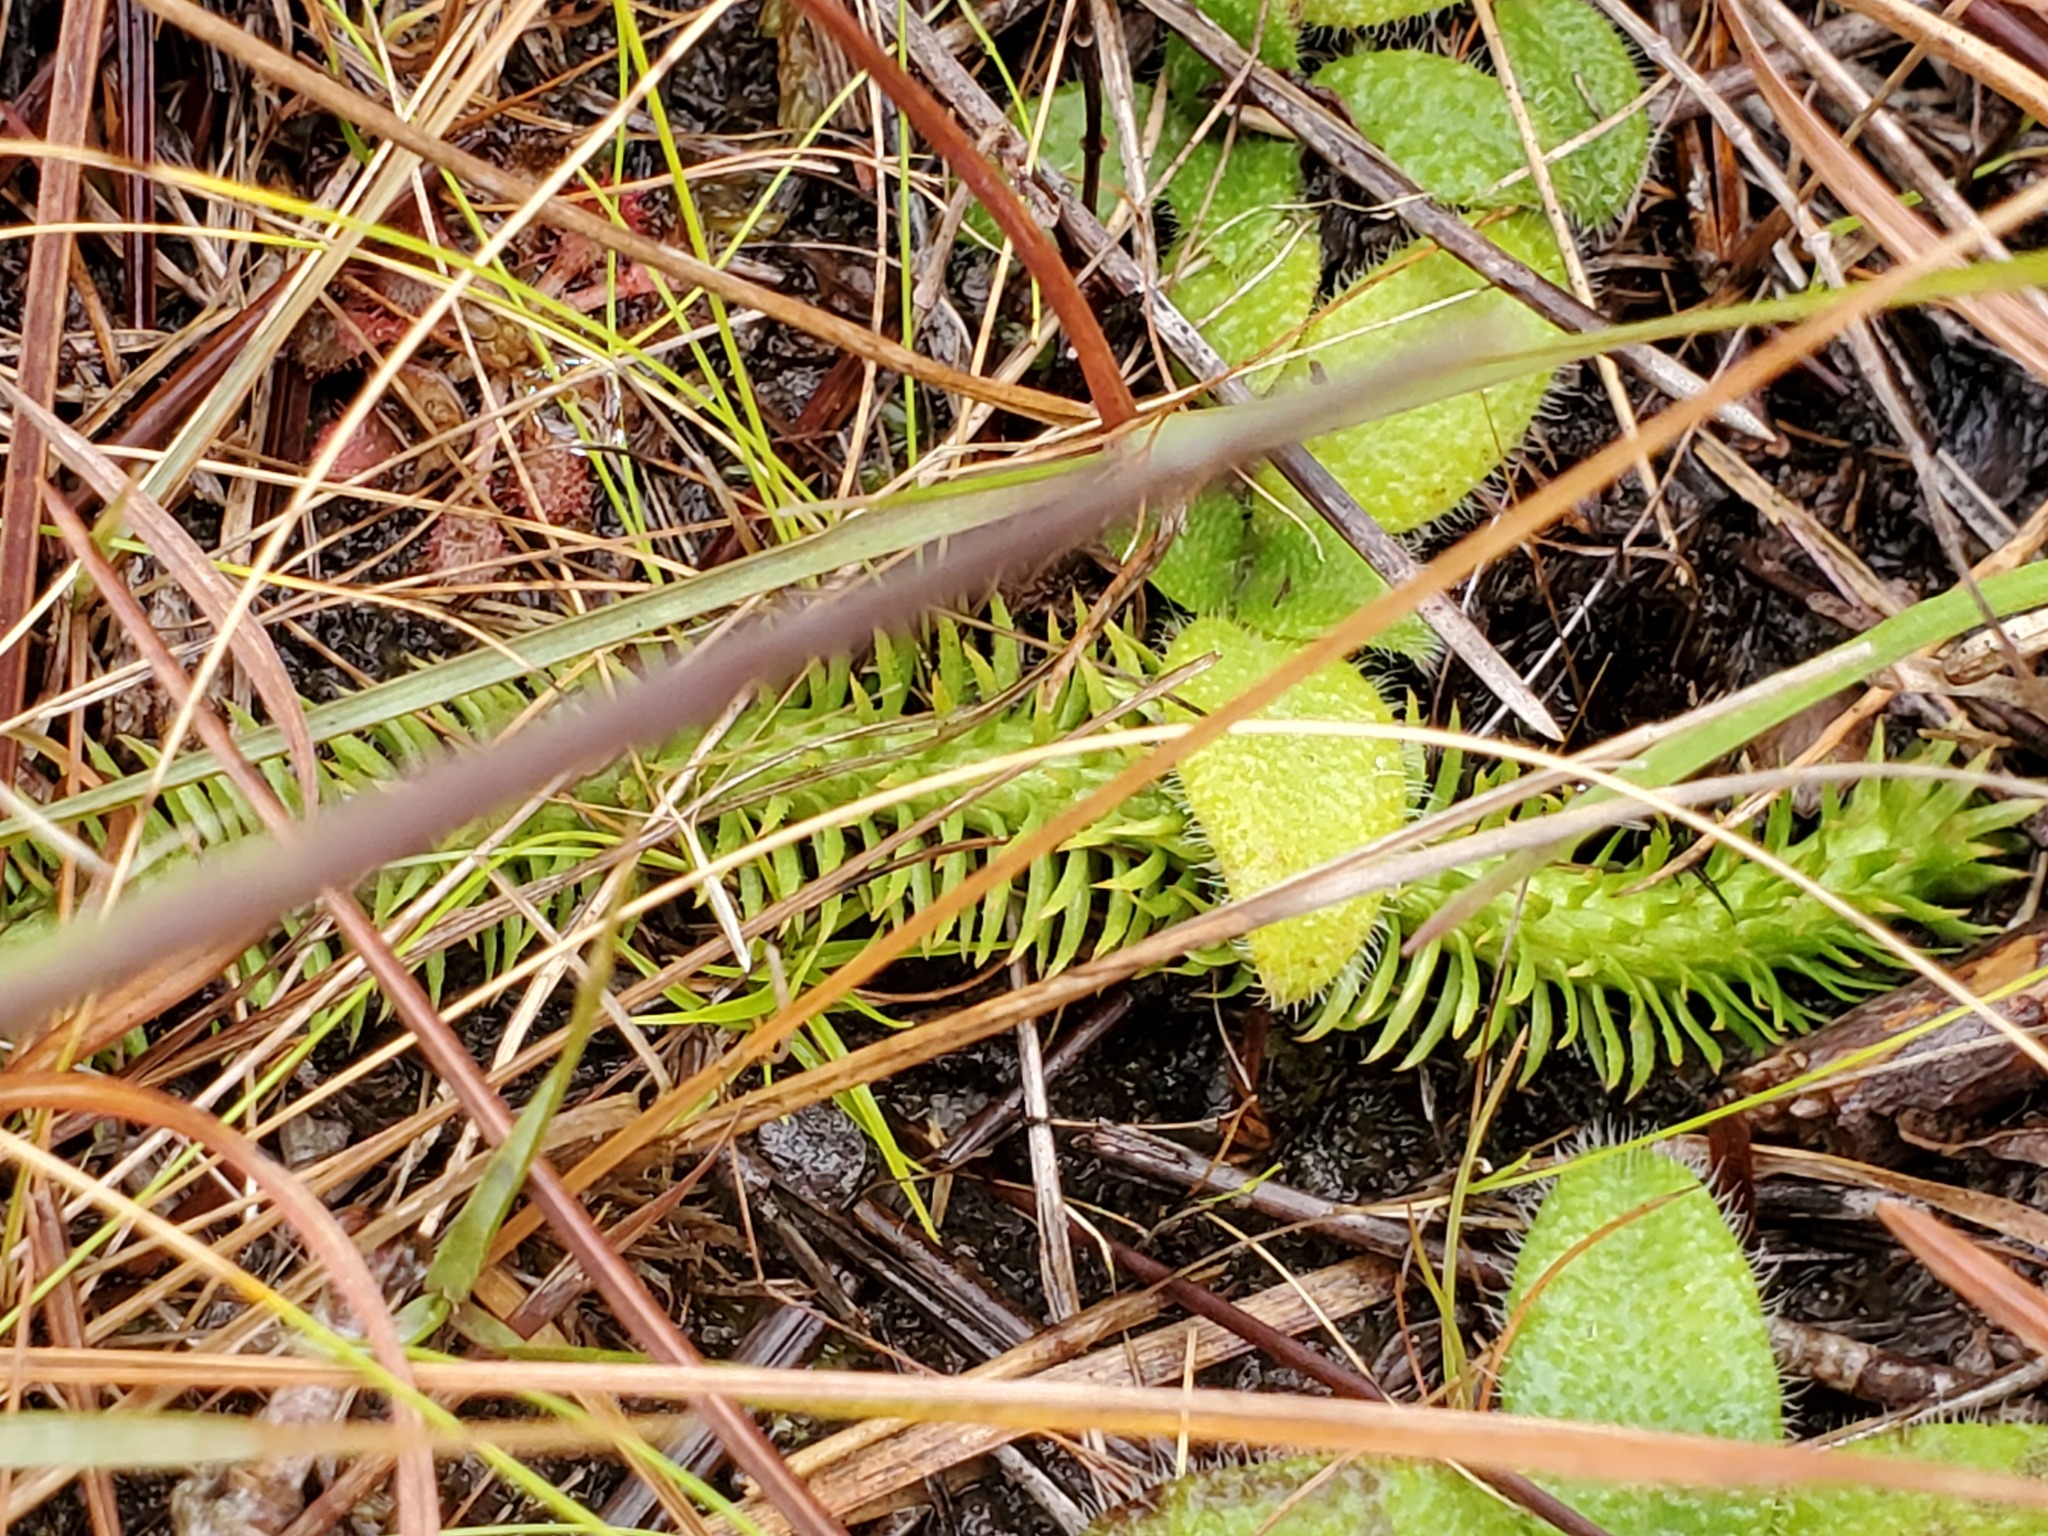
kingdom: Plantae
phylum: Tracheophyta
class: Lycopodiopsida
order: Lycopodiales
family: Lycopodiaceae
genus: Lycopodiella
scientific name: Lycopodiella alopecuroides
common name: Foxtail clubmoss
